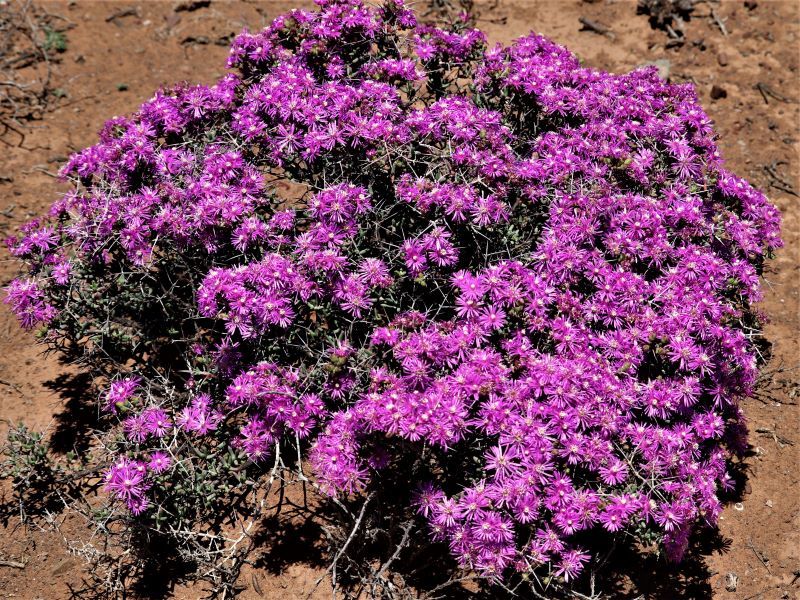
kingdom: Plantae
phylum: Tracheophyta
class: Magnoliopsida
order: Caryophyllales
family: Aizoaceae
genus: Ruschia
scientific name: Ruschia intricata
